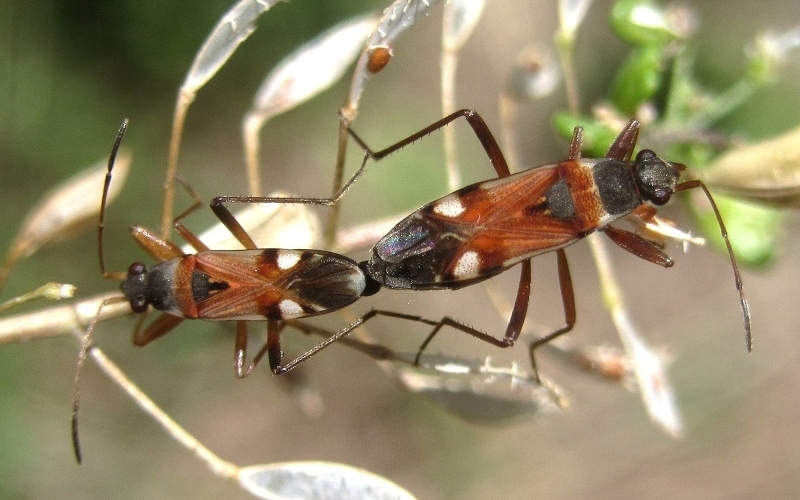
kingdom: Animalia
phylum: Arthropoda
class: Insecta
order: Hemiptera
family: Rhyparochromidae
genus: Beosus
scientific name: Beosus quadripunctatus
